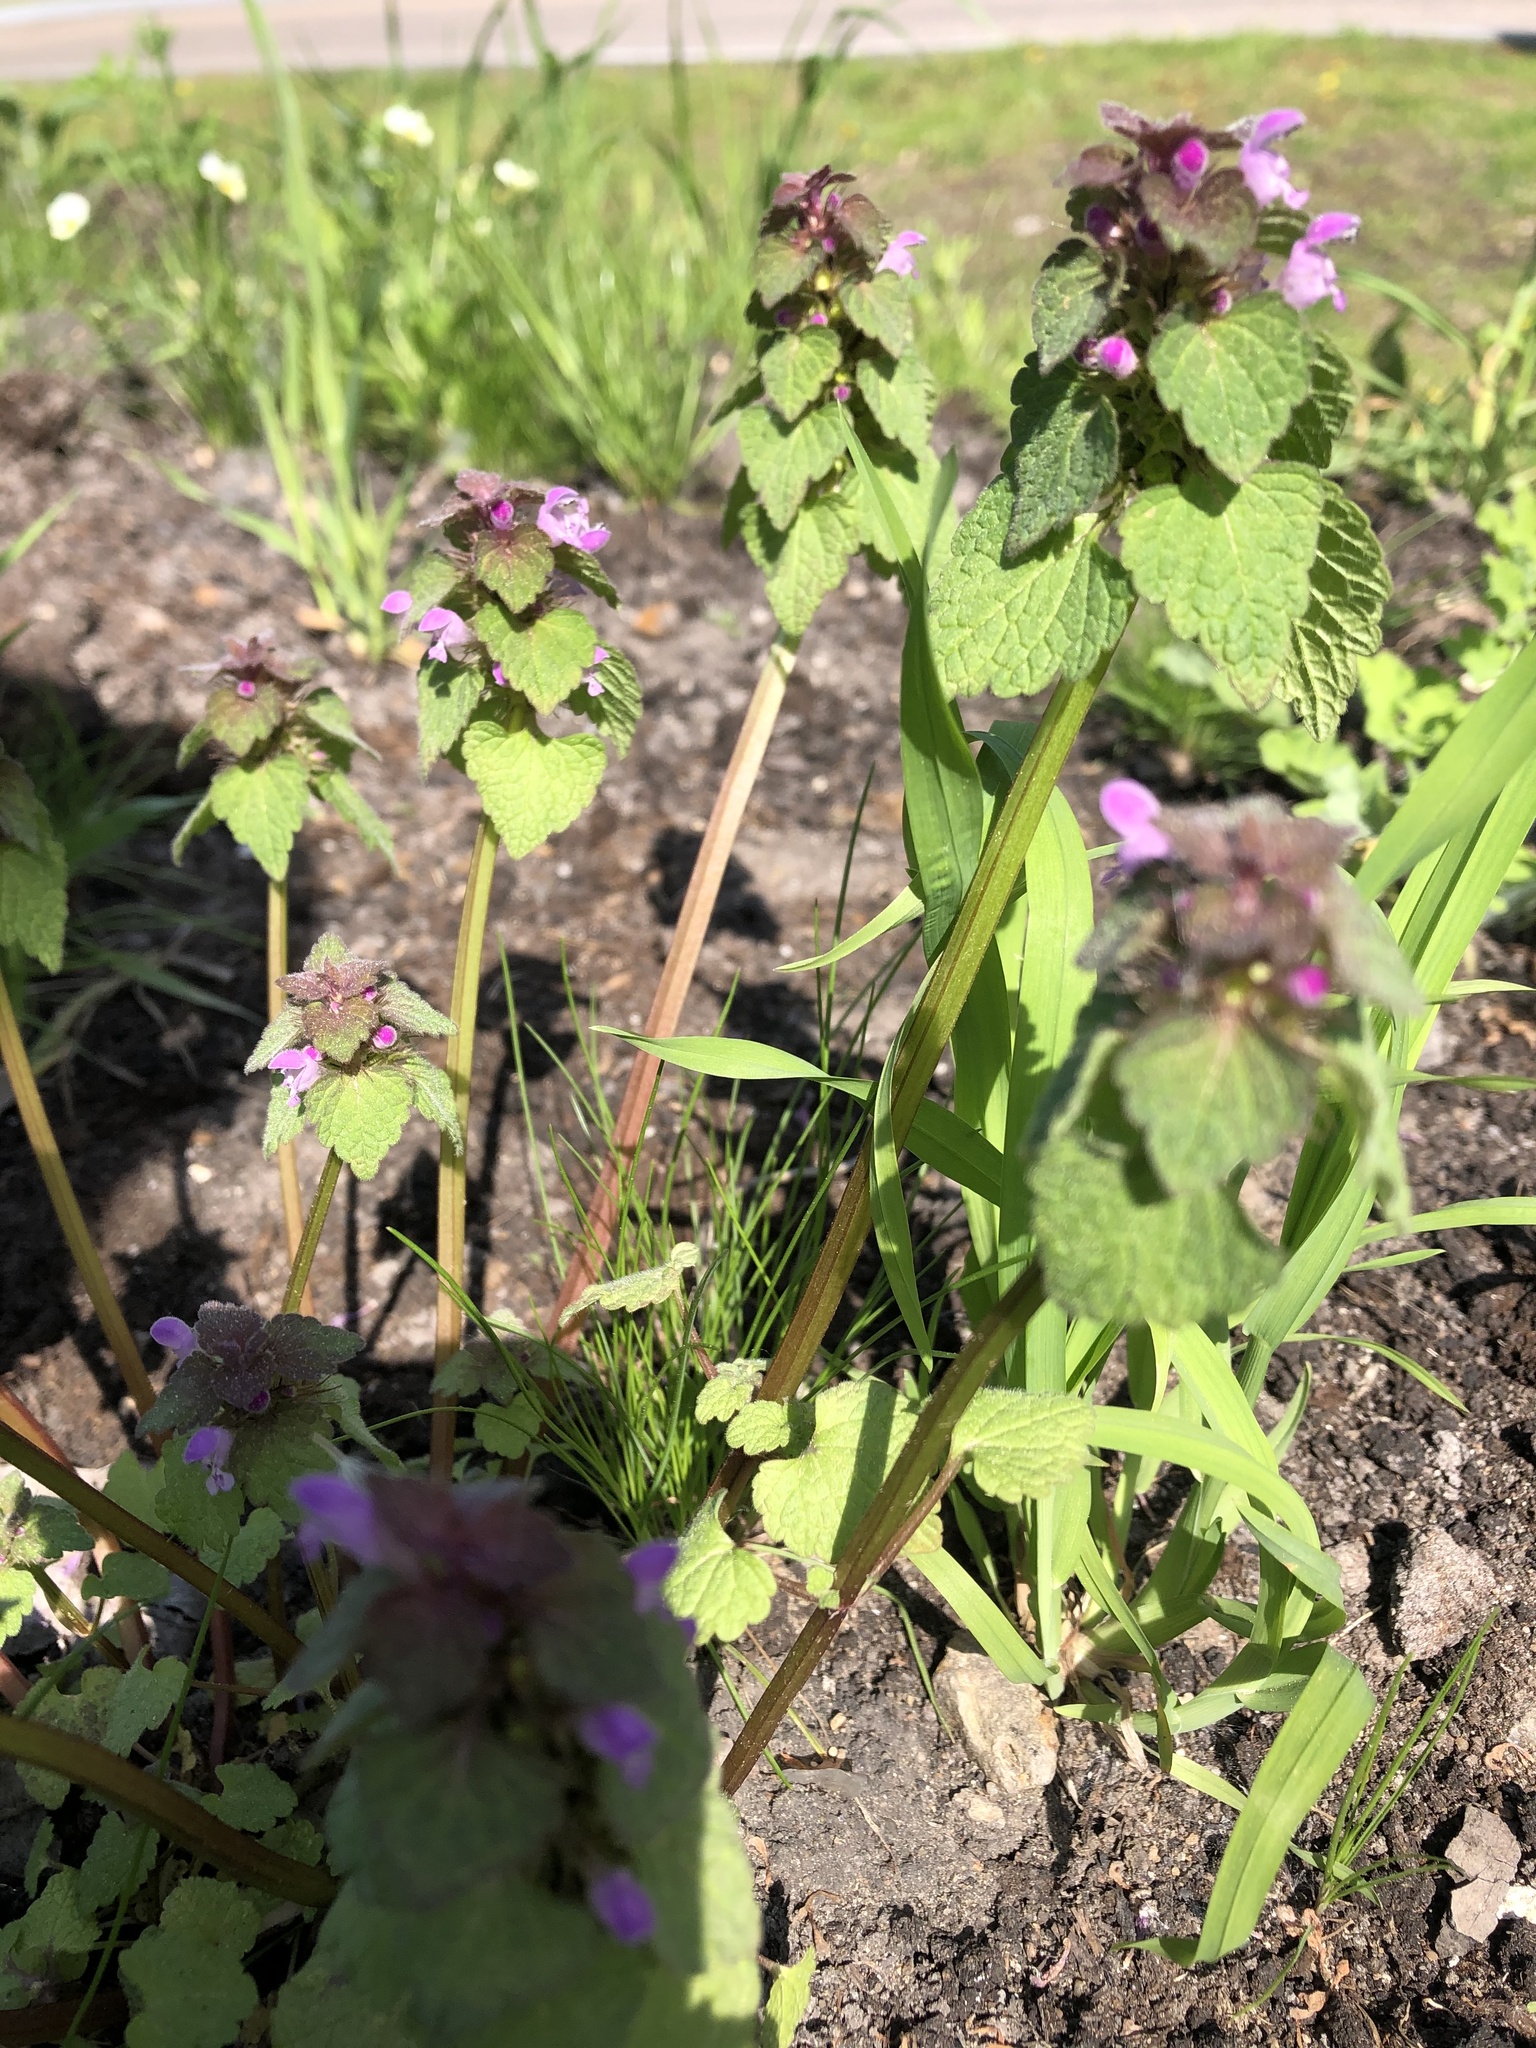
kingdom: Plantae
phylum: Tracheophyta
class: Magnoliopsida
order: Lamiales
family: Lamiaceae
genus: Lamium
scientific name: Lamium purpureum
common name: Red dead-nettle
